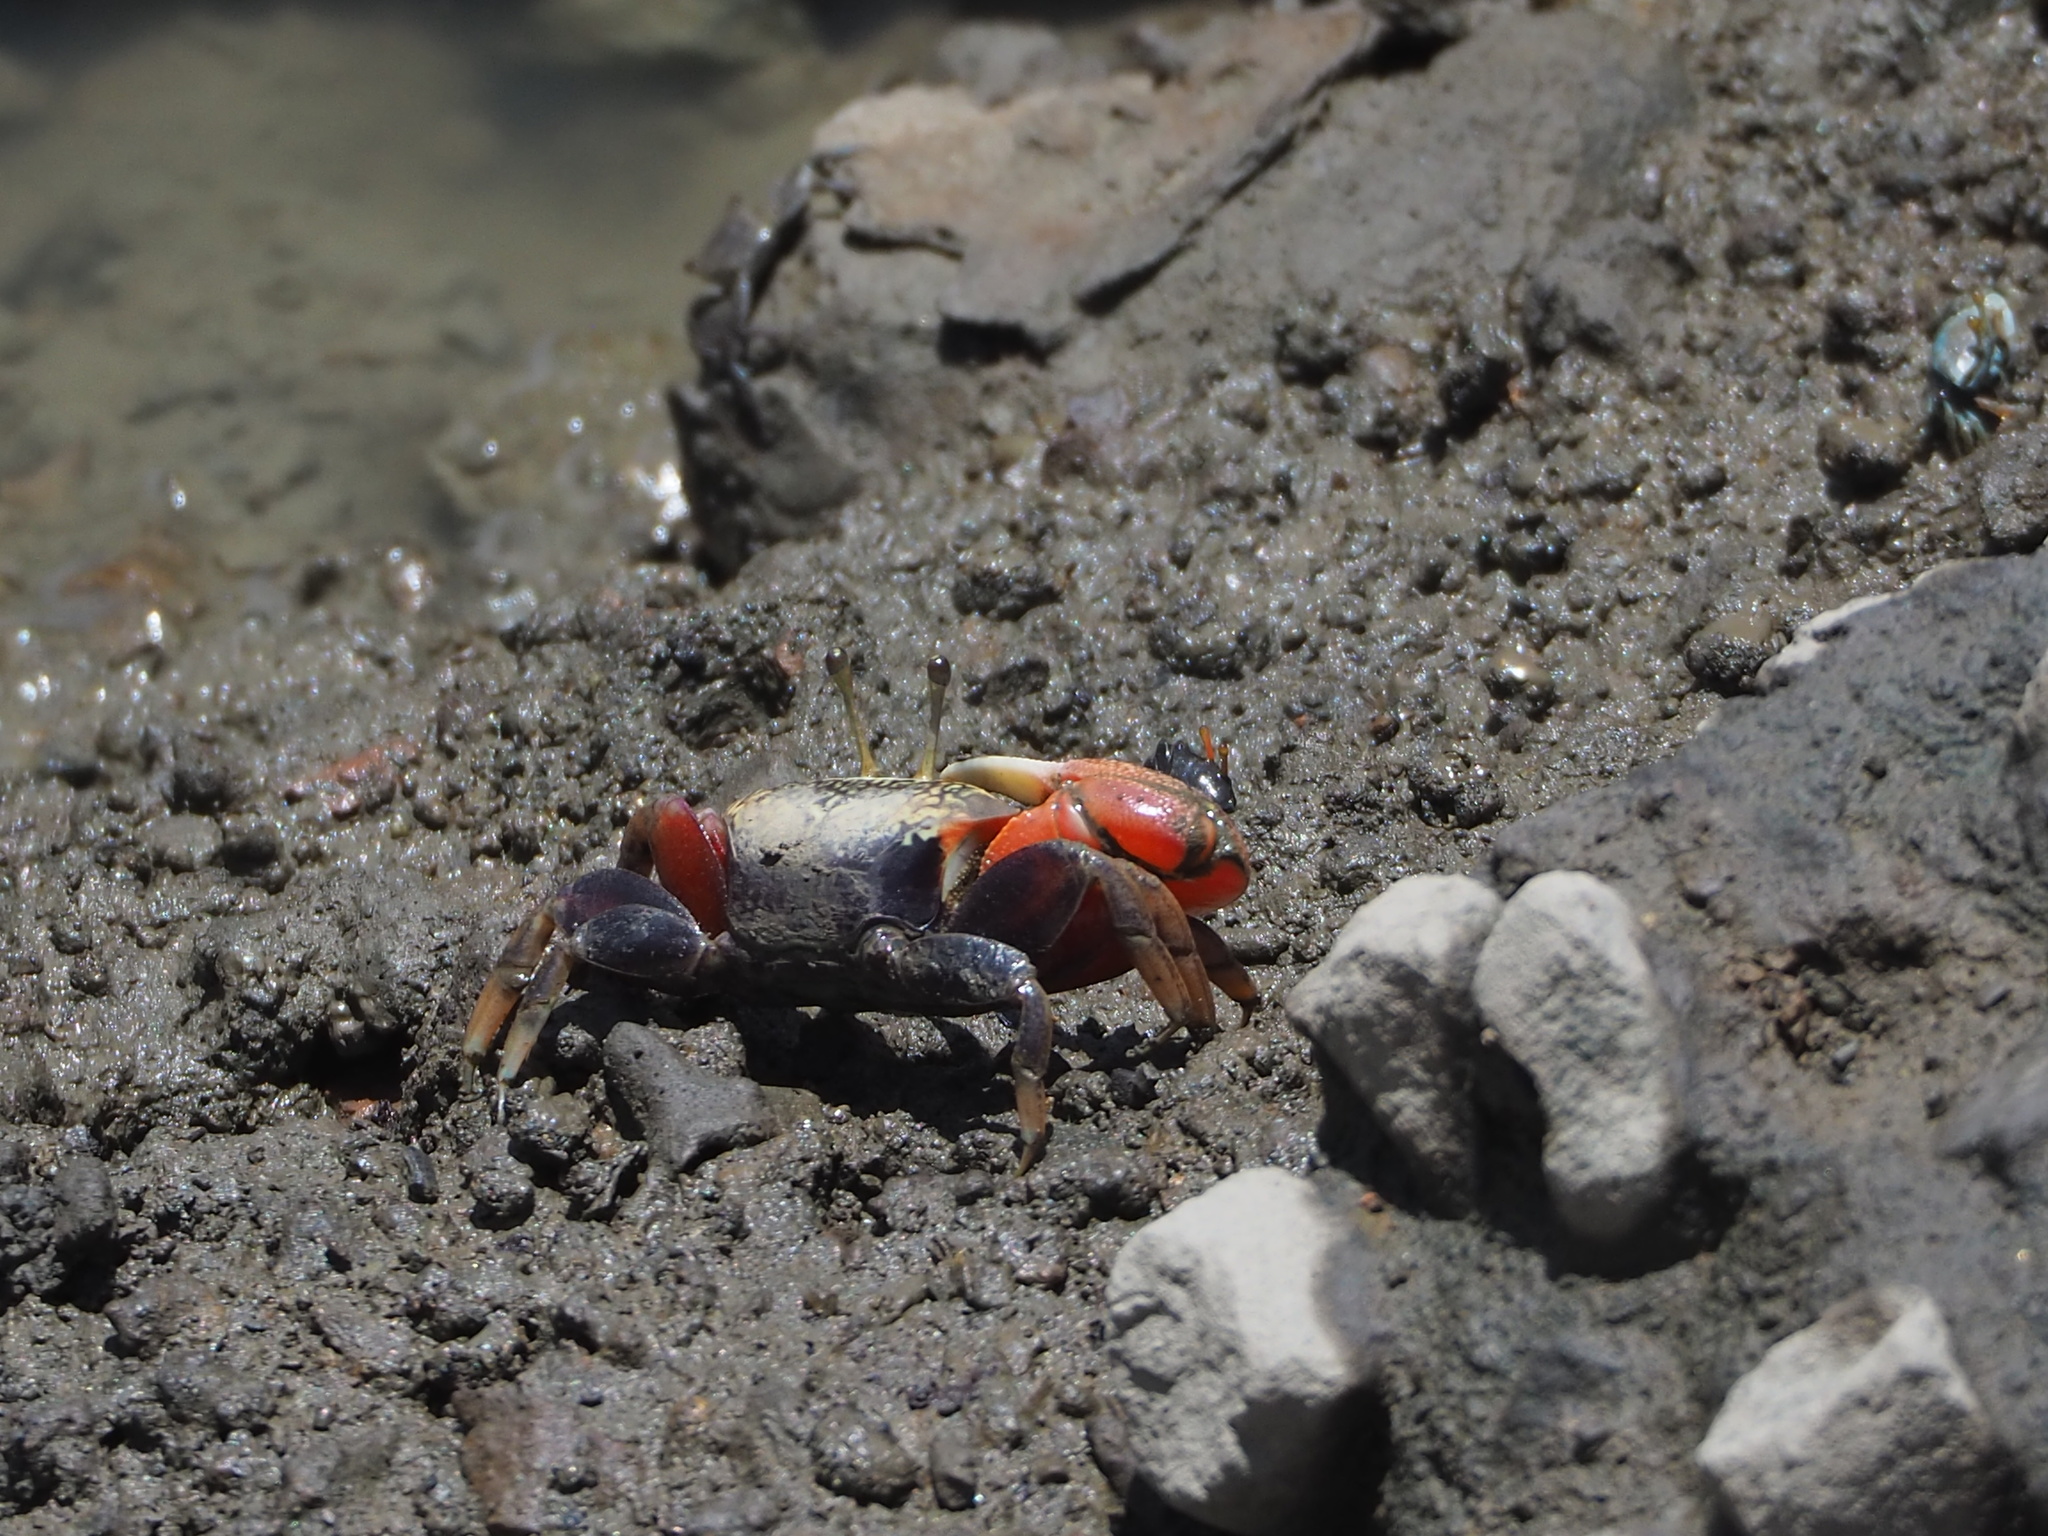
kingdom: Animalia
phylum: Arthropoda
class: Malacostraca
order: Decapoda
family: Ocypodidae
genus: Tubuca
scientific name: Tubuca arcuata
